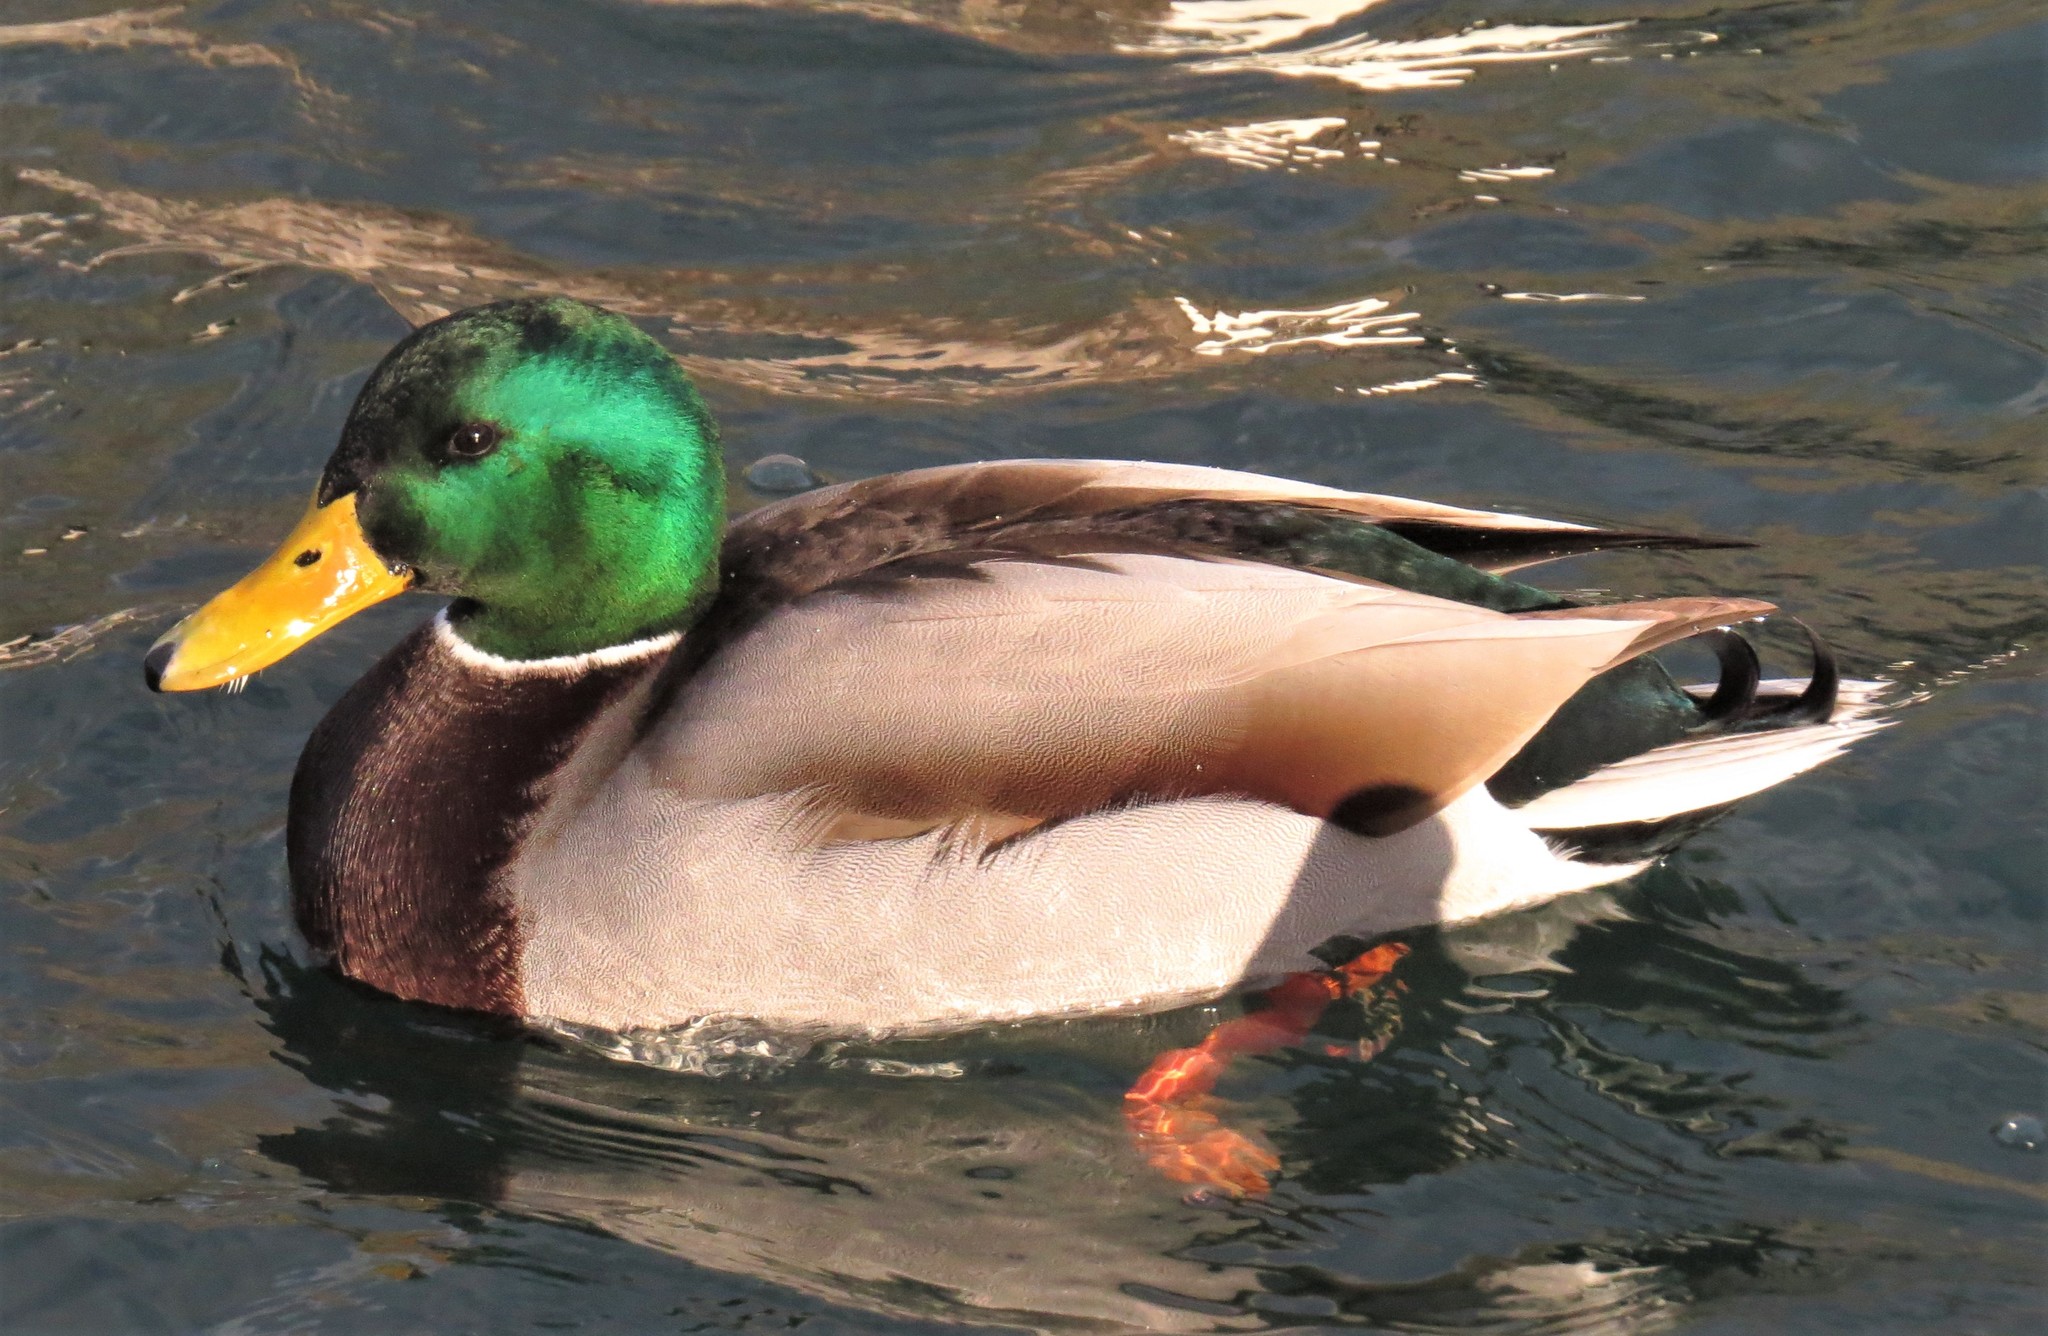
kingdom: Animalia
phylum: Chordata
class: Aves
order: Anseriformes
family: Anatidae
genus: Anas
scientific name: Anas platyrhynchos
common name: Mallard
